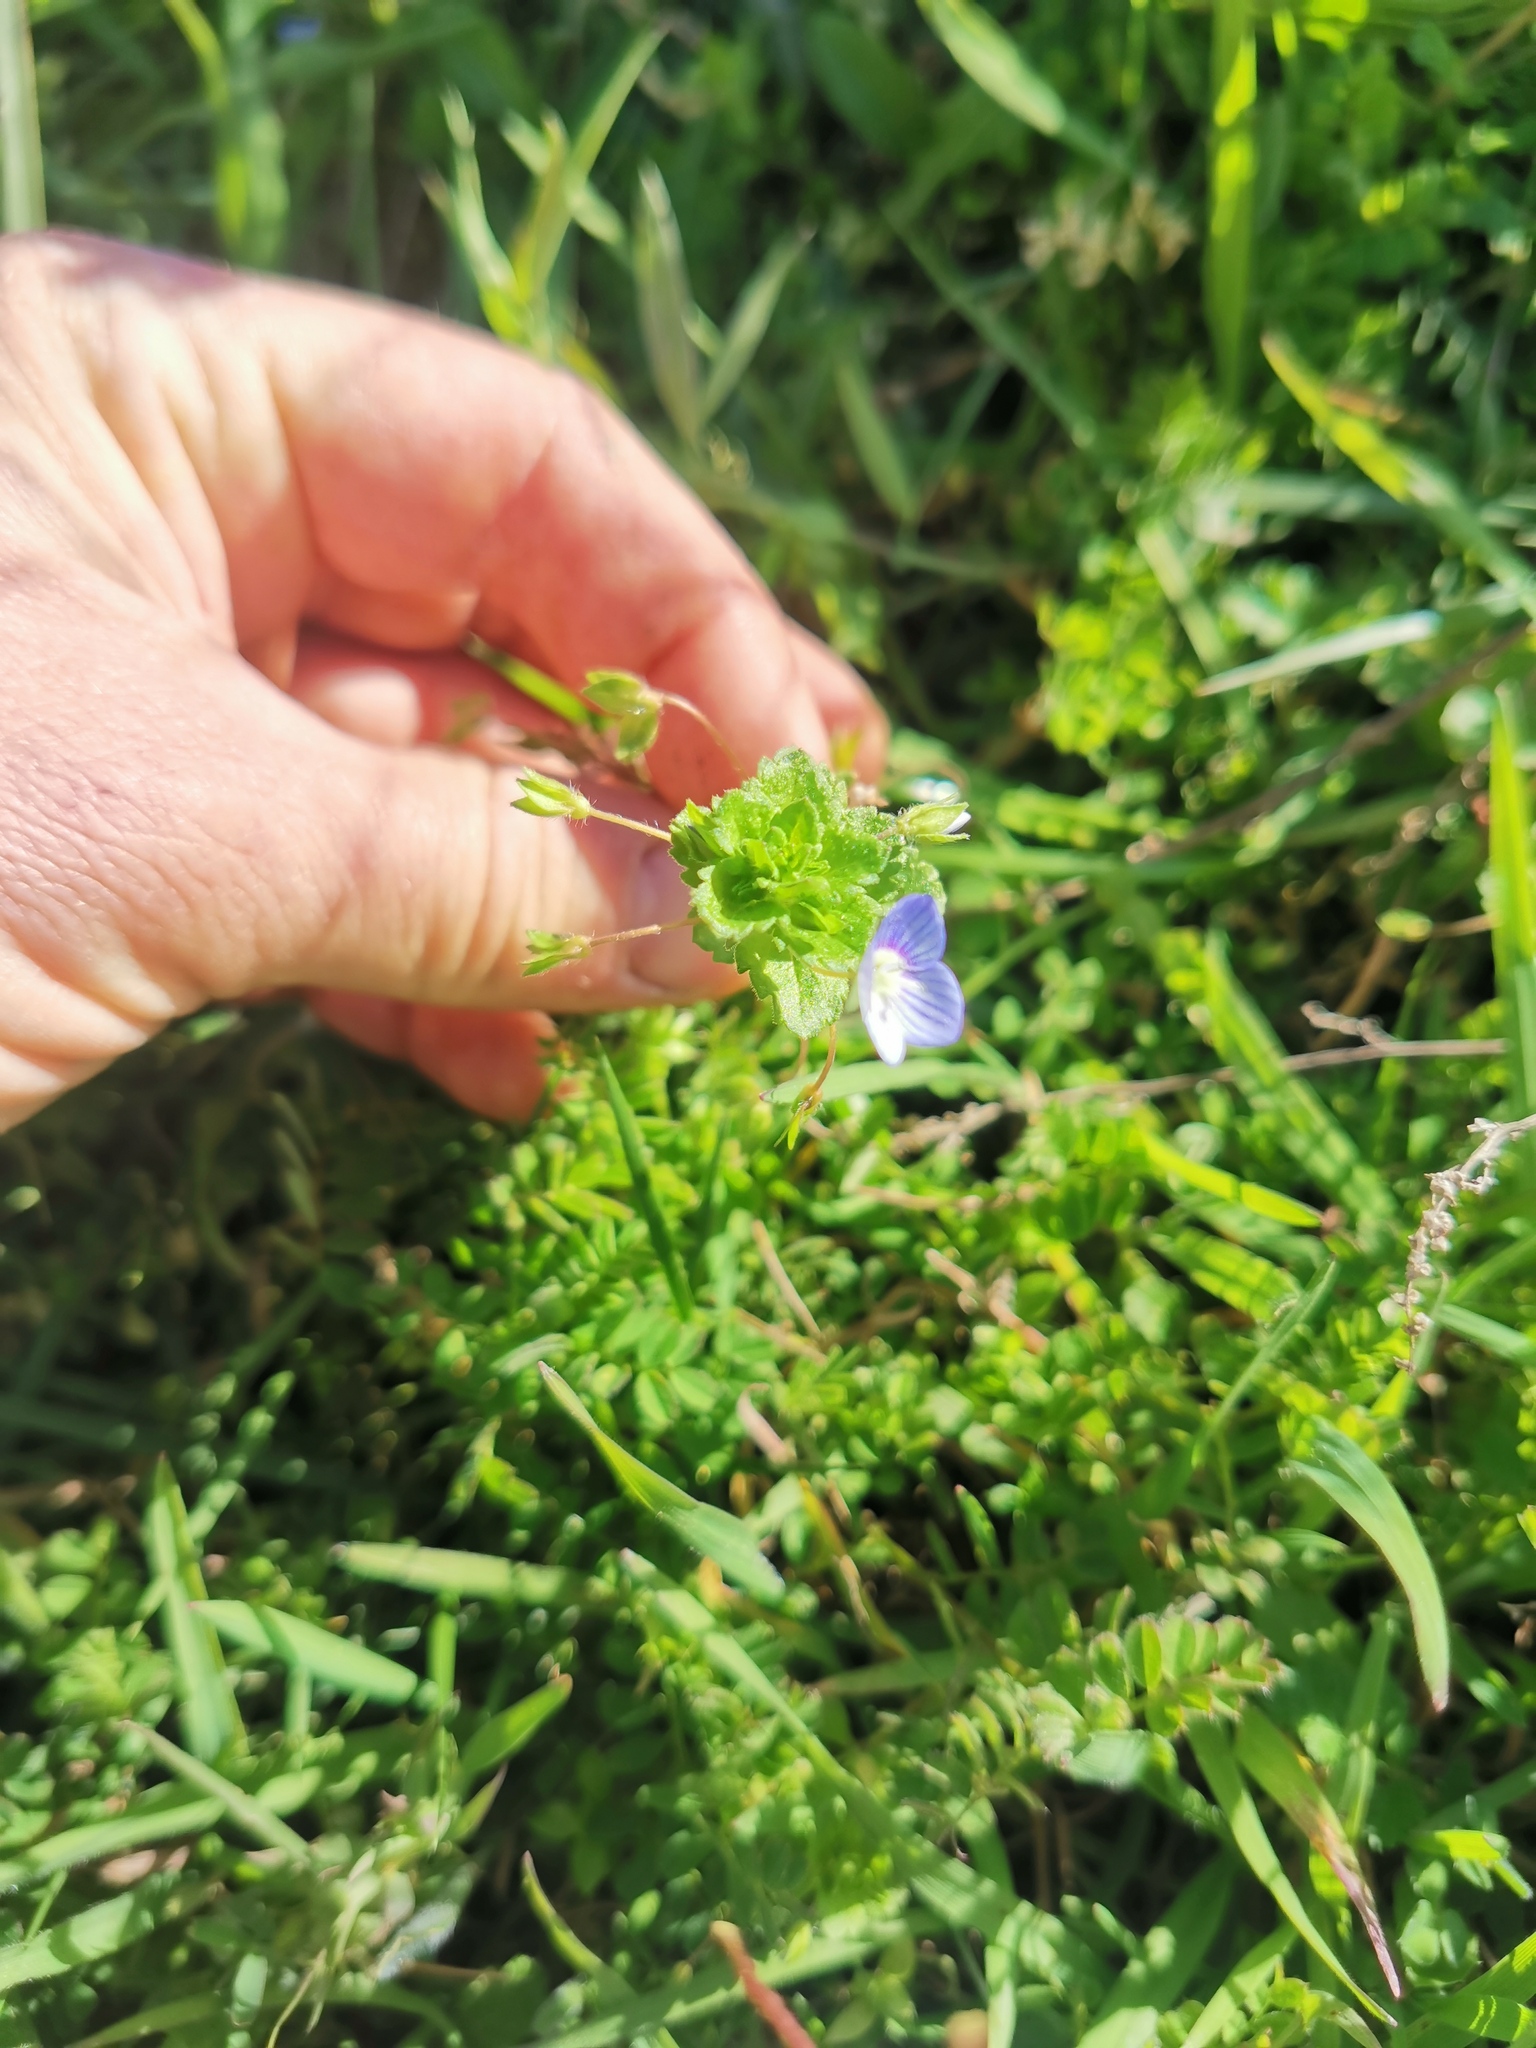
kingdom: Plantae
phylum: Tracheophyta
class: Magnoliopsida
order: Lamiales
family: Plantaginaceae
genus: Veronica
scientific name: Veronica persica
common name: Common field-speedwell
